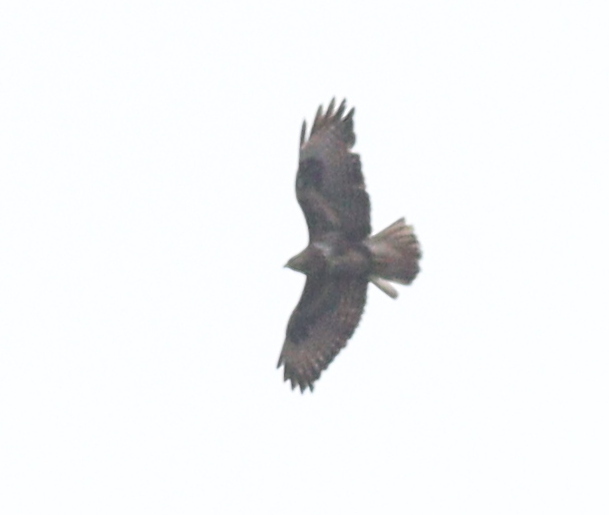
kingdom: Animalia
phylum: Chordata
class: Aves
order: Accipitriformes
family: Accipitridae
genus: Buteo
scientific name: Buteo buteo
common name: Common buzzard
